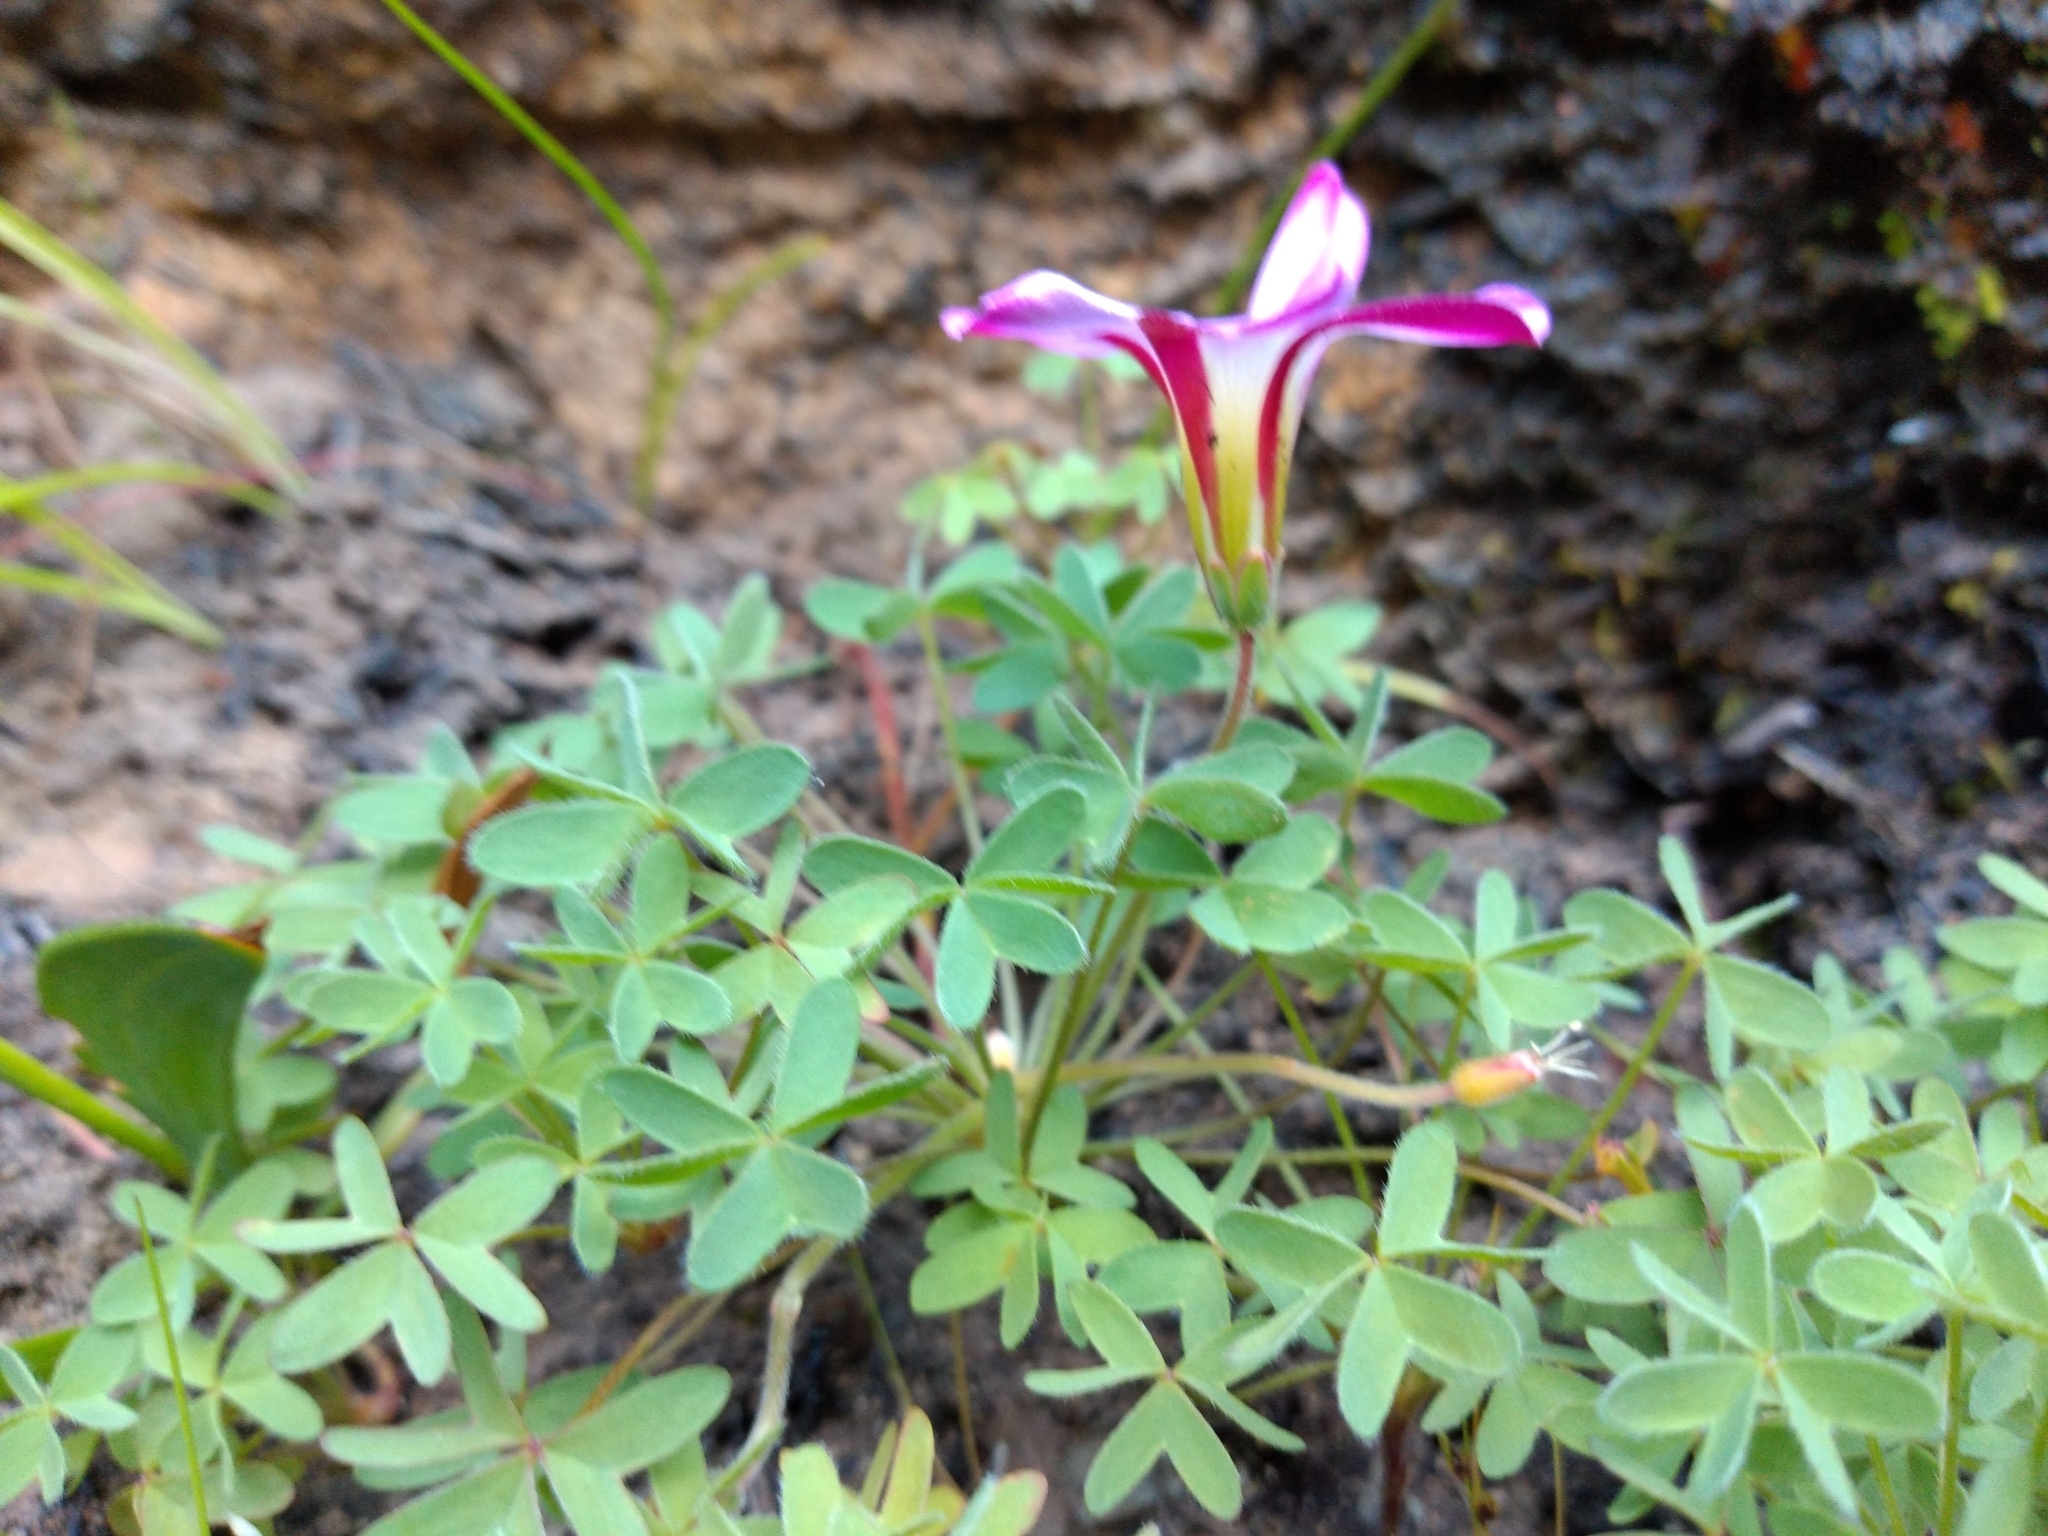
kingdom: Plantae
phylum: Tracheophyta
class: Magnoliopsida
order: Oxalidales
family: Oxalidaceae
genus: Oxalis
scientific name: Oxalis heterophylla
